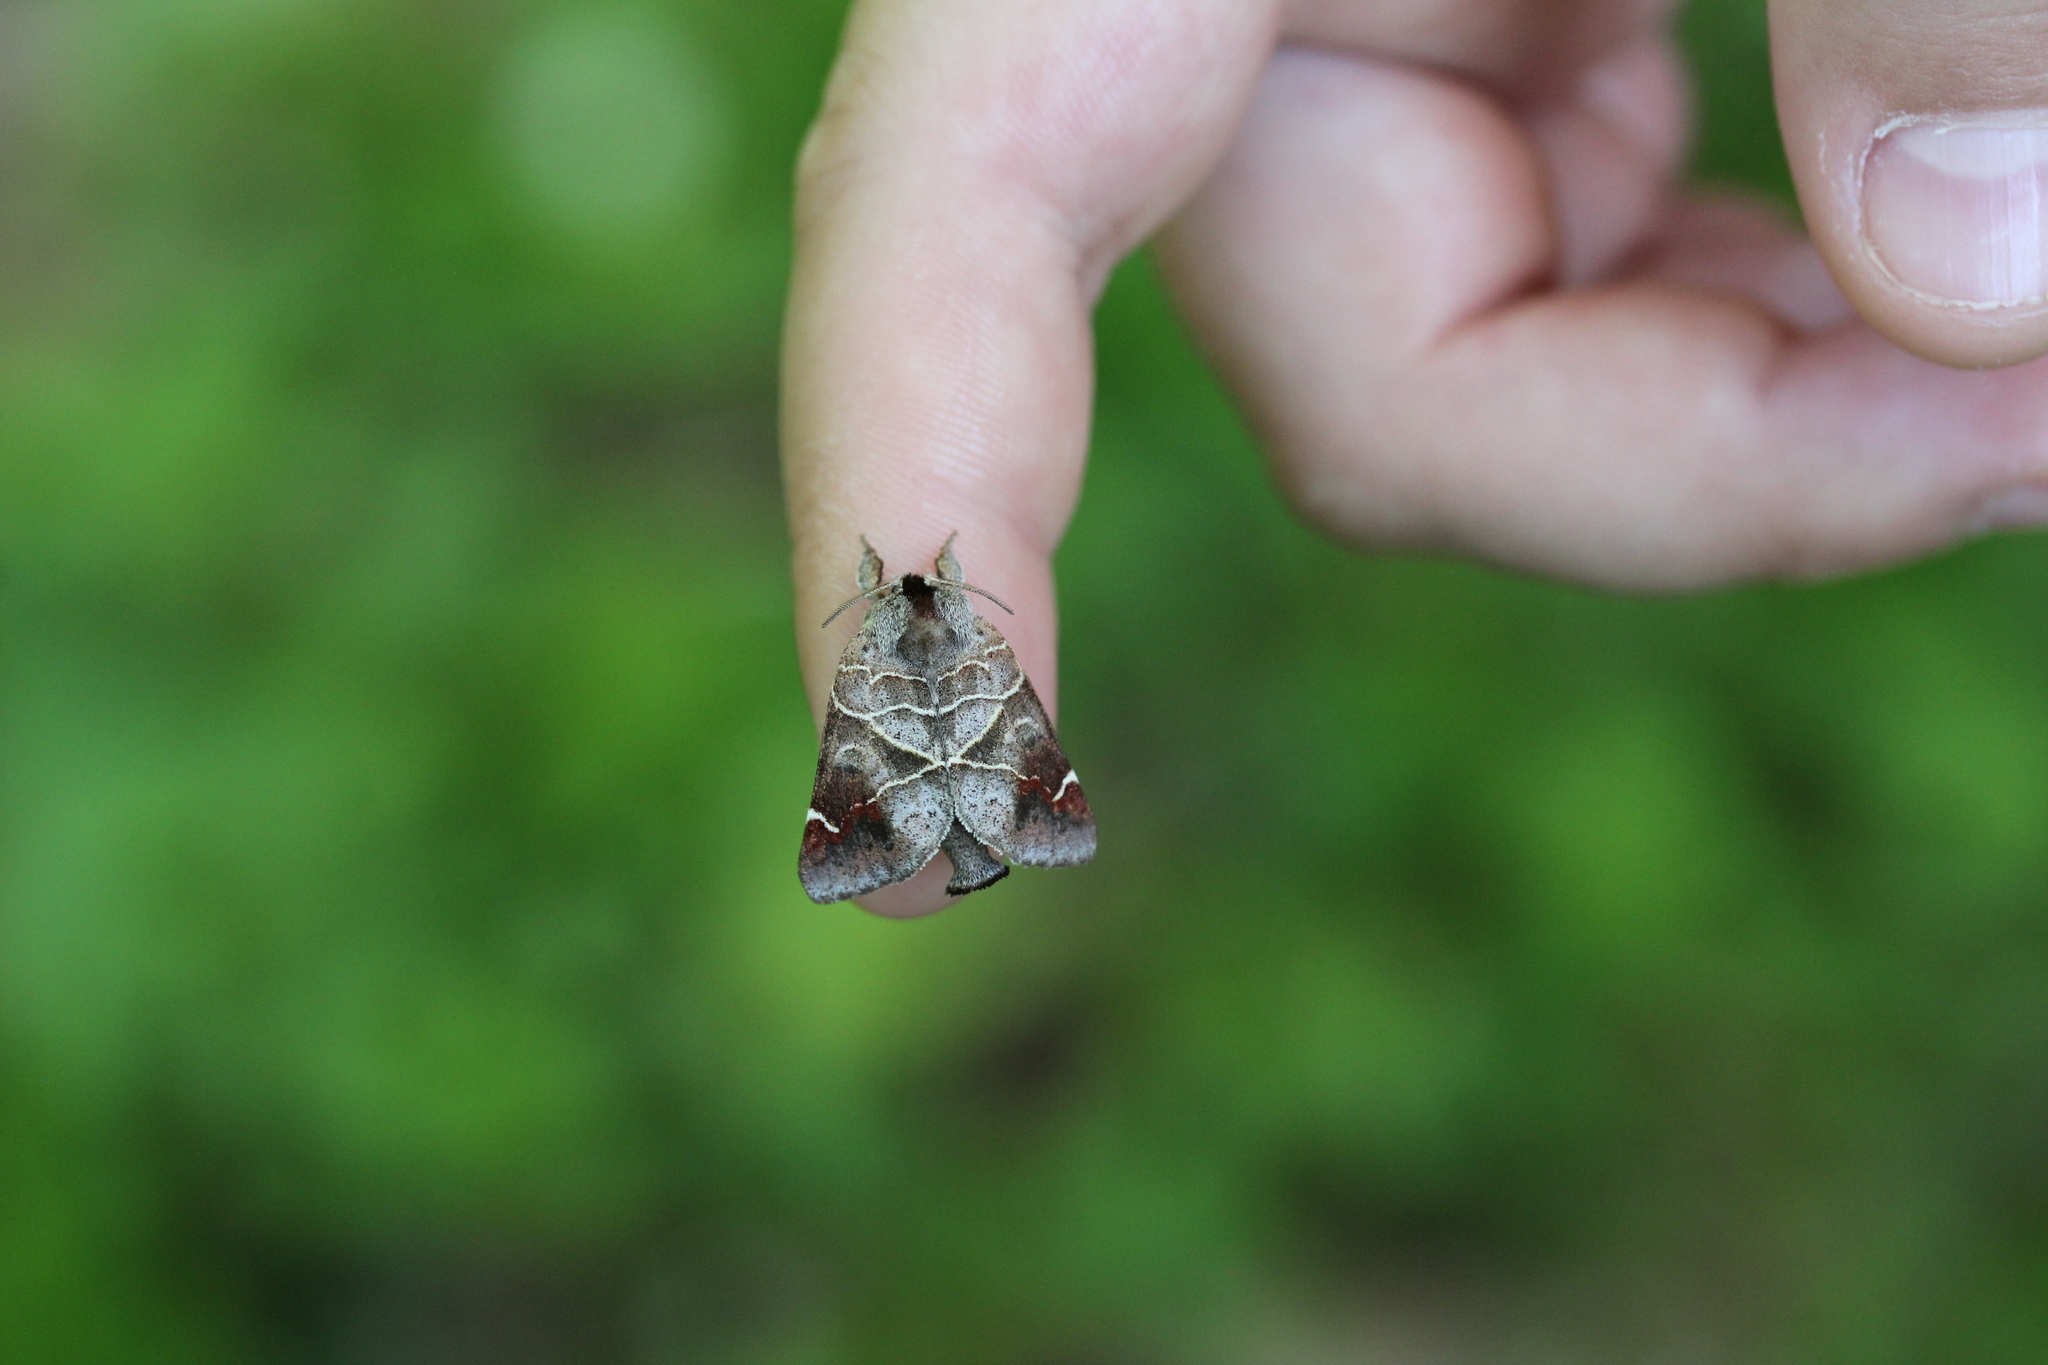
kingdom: Animalia
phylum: Arthropoda
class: Insecta
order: Lepidoptera
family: Notodontidae
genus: Clostera
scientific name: Clostera apicalis
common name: Apical prominent
